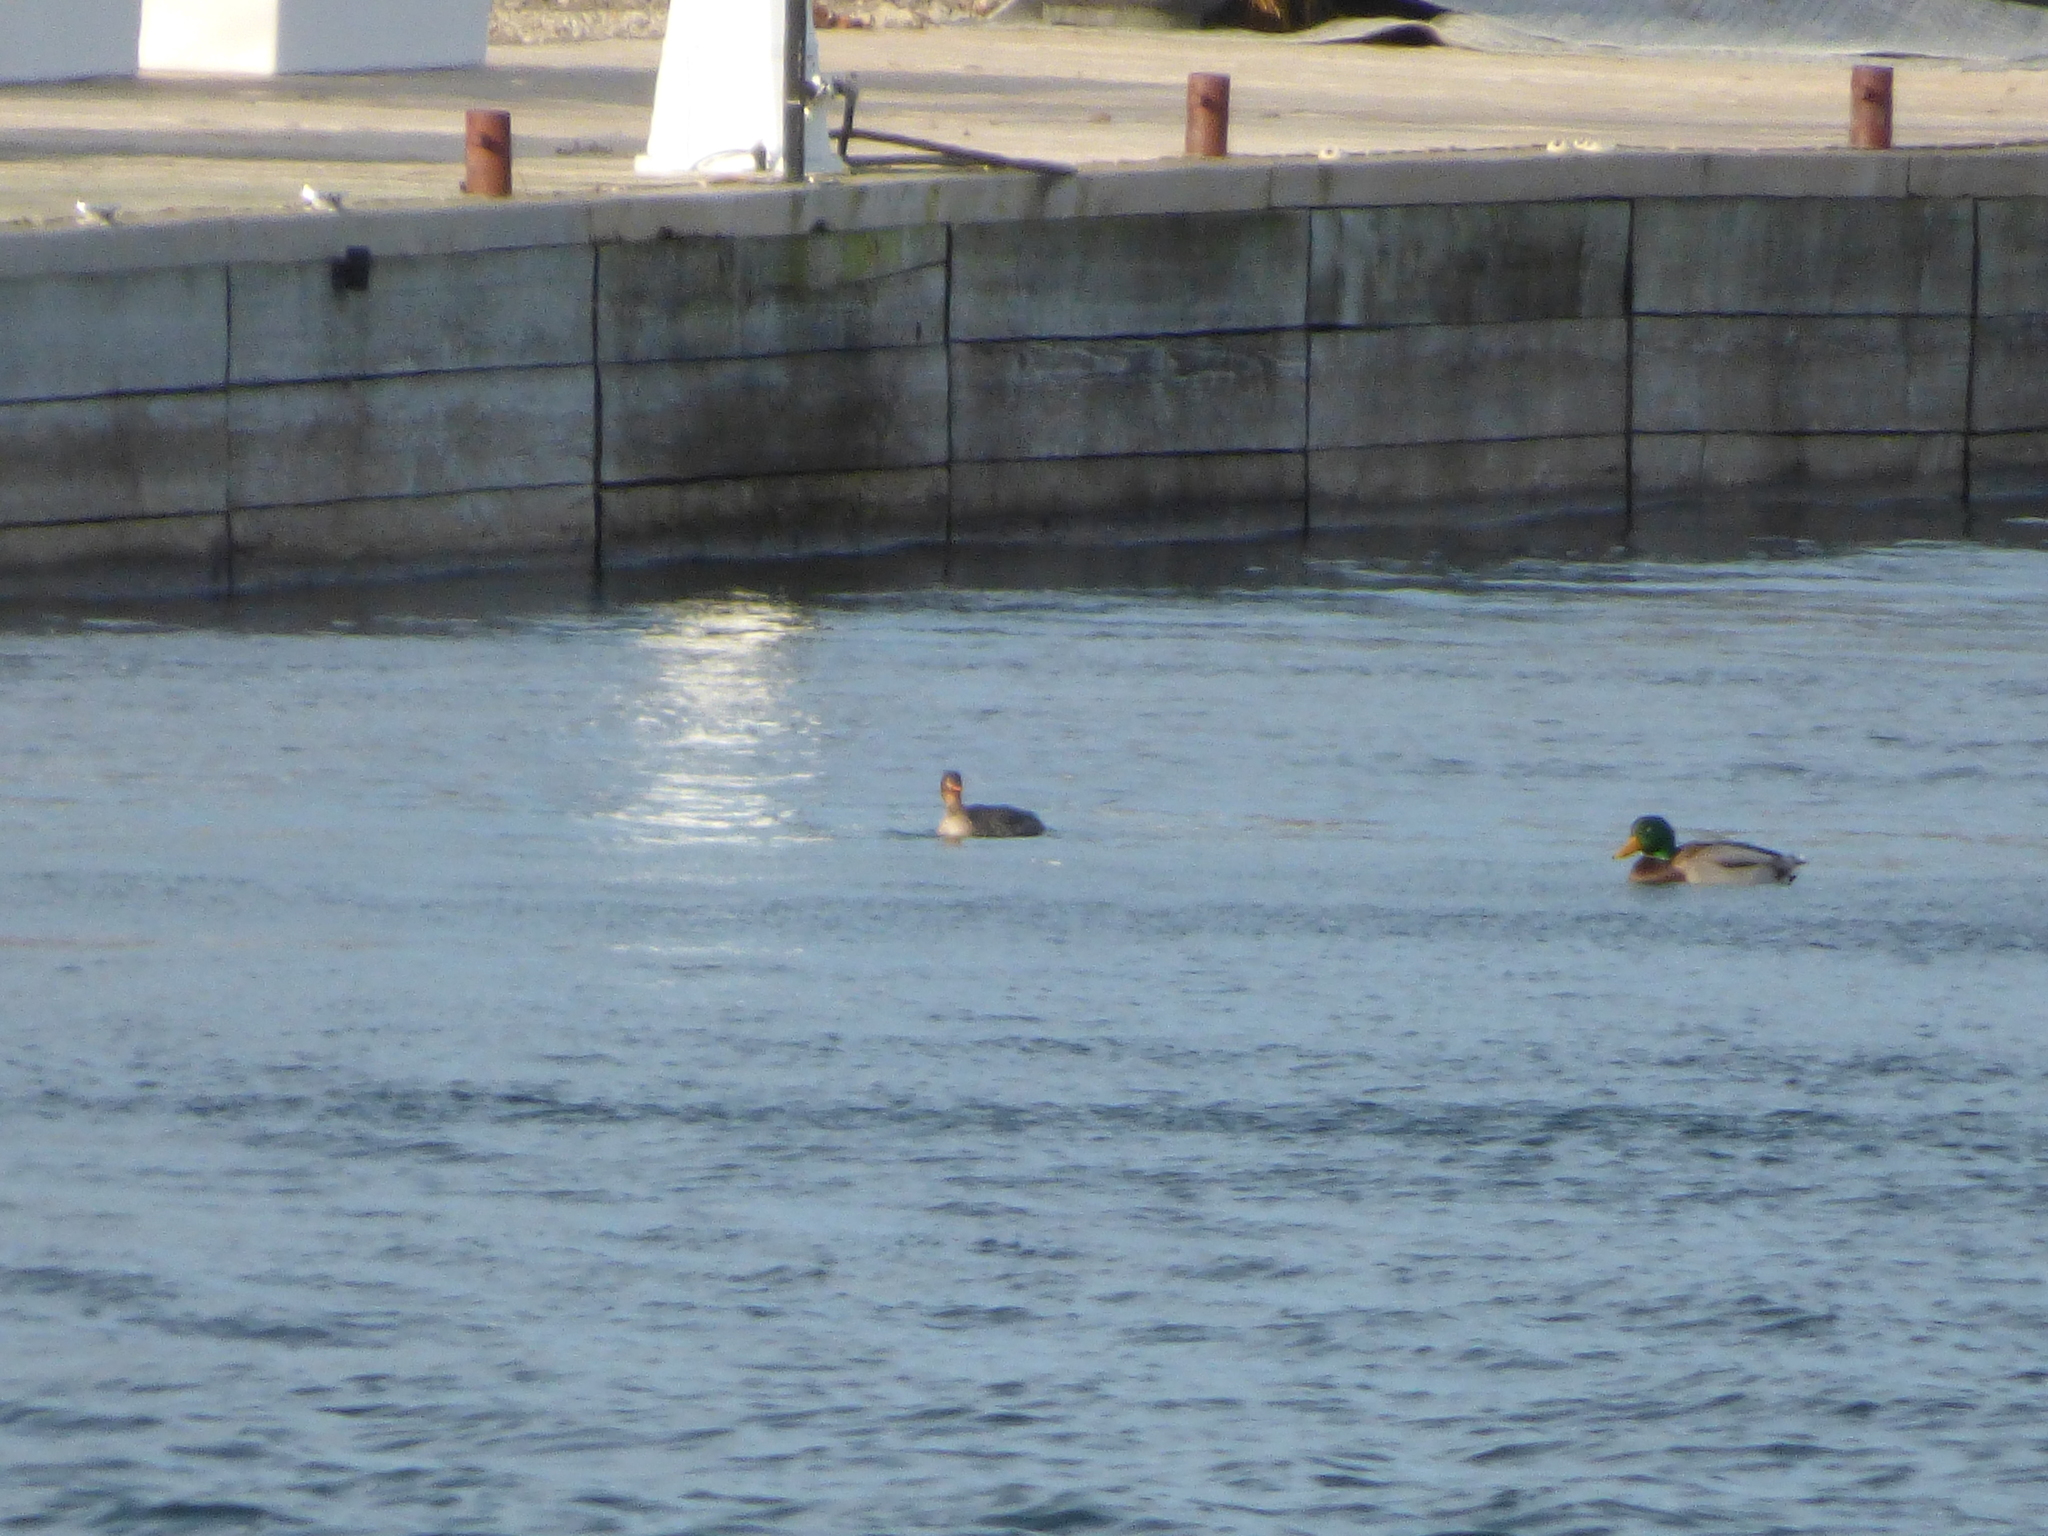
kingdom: Animalia
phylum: Chordata
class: Aves
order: Anseriformes
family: Anatidae
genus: Anas
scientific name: Anas platyrhynchos
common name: Mallard
